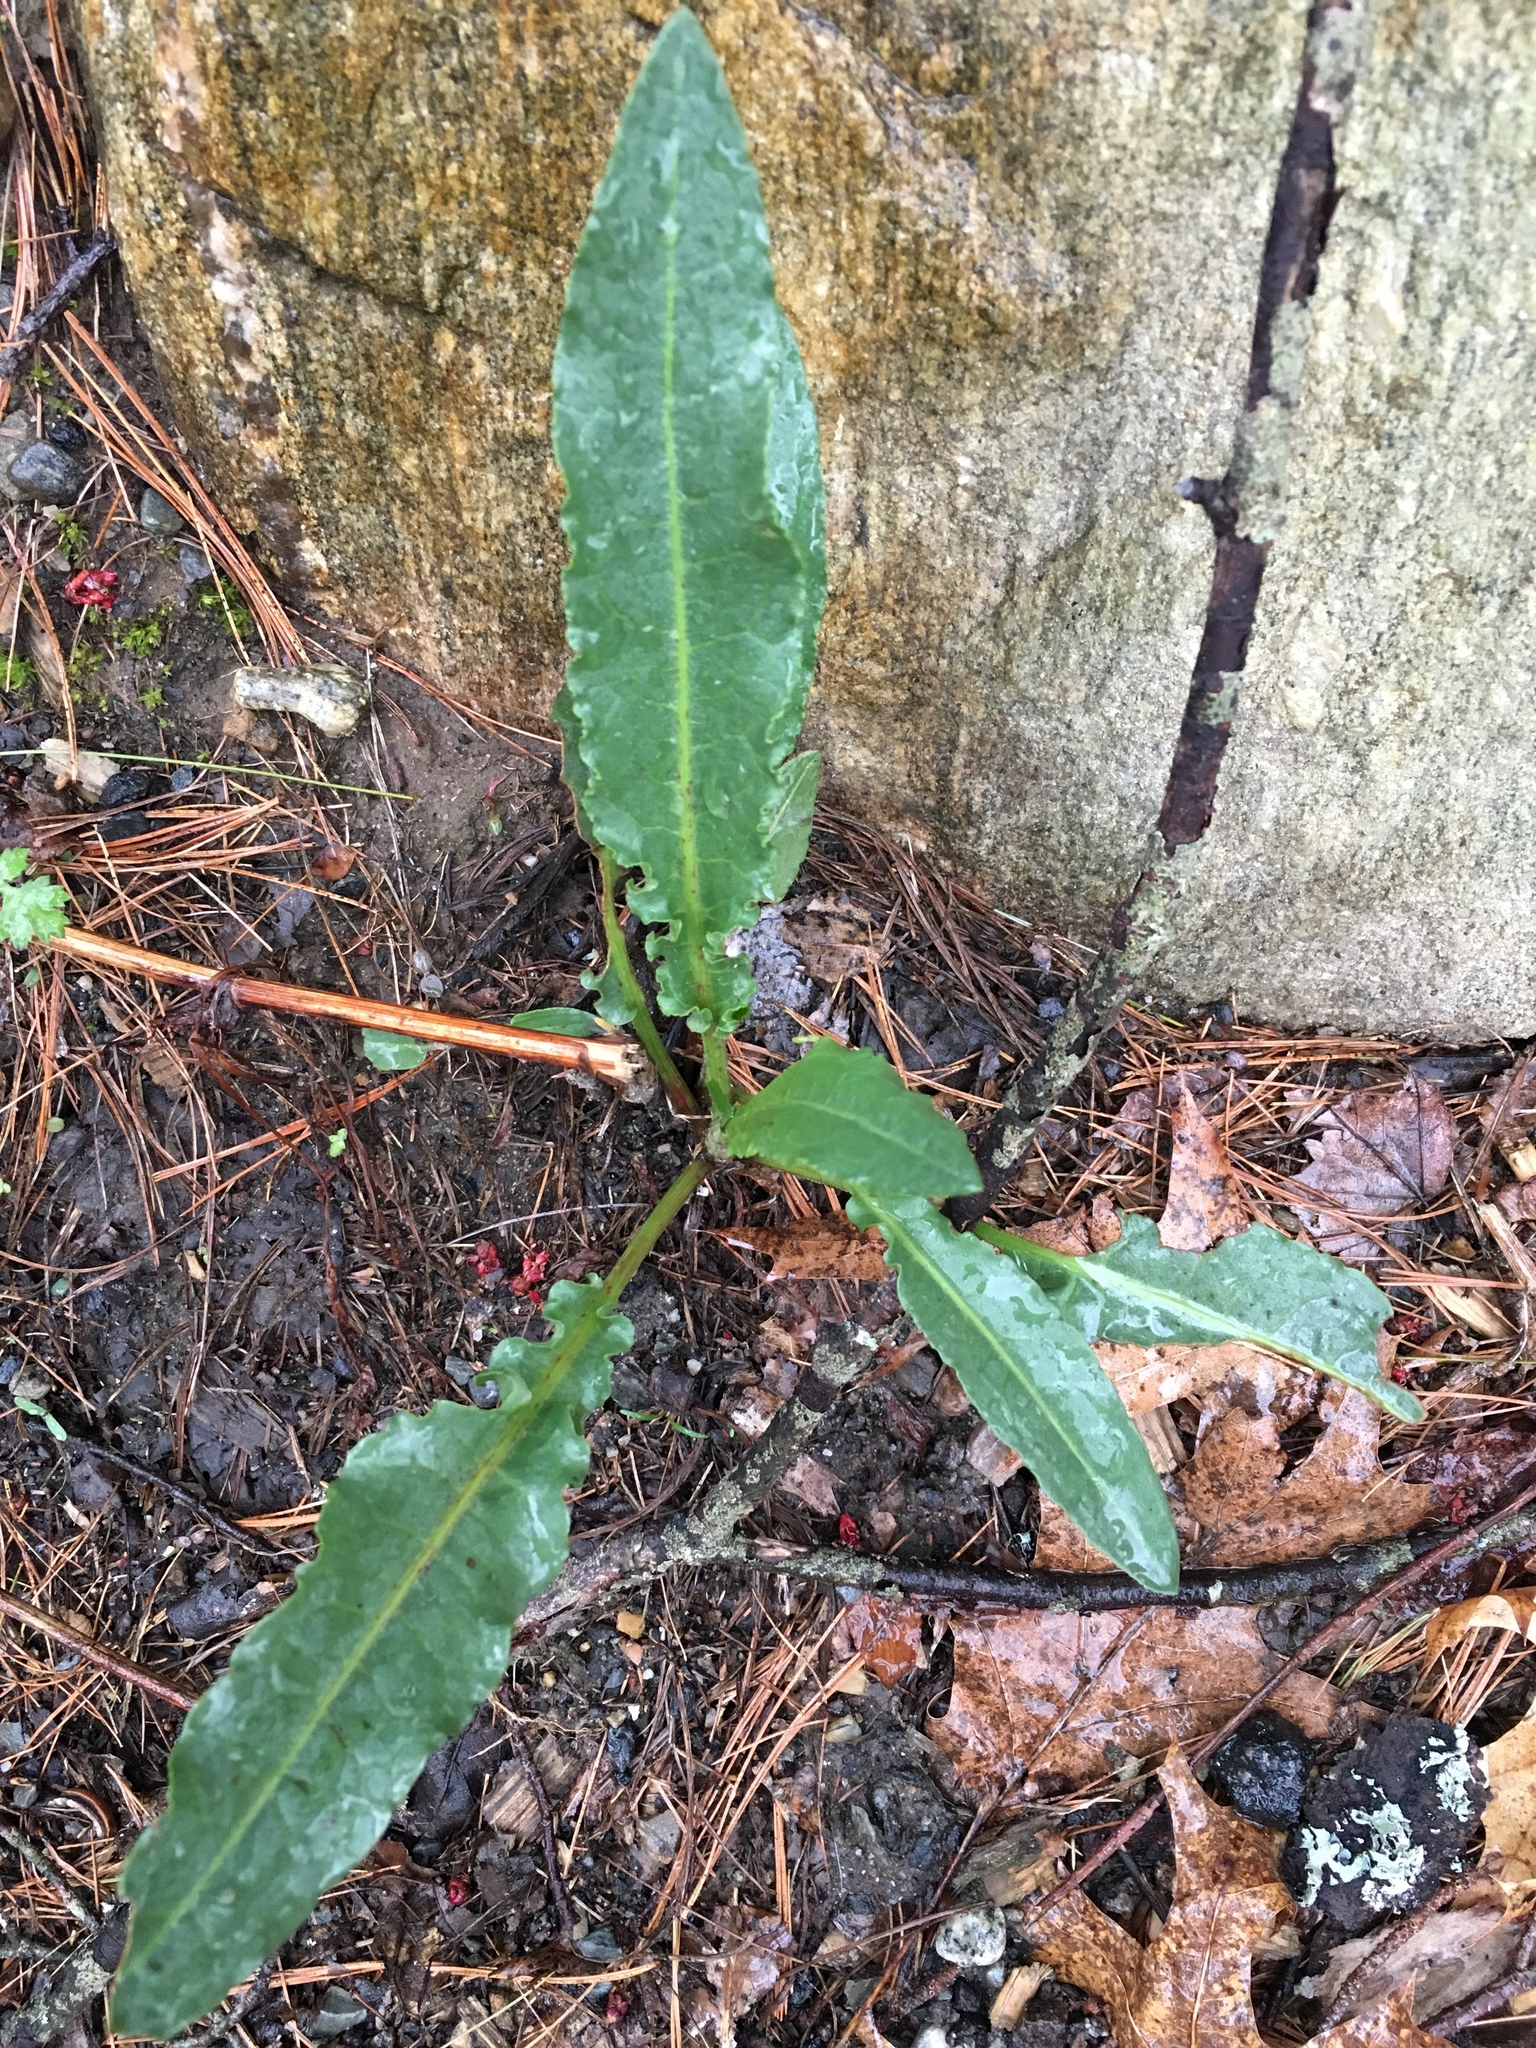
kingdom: Plantae
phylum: Tracheophyta
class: Magnoliopsida
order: Caryophyllales
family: Polygonaceae
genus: Rumex
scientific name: Rumex crispus
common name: Curled dock
